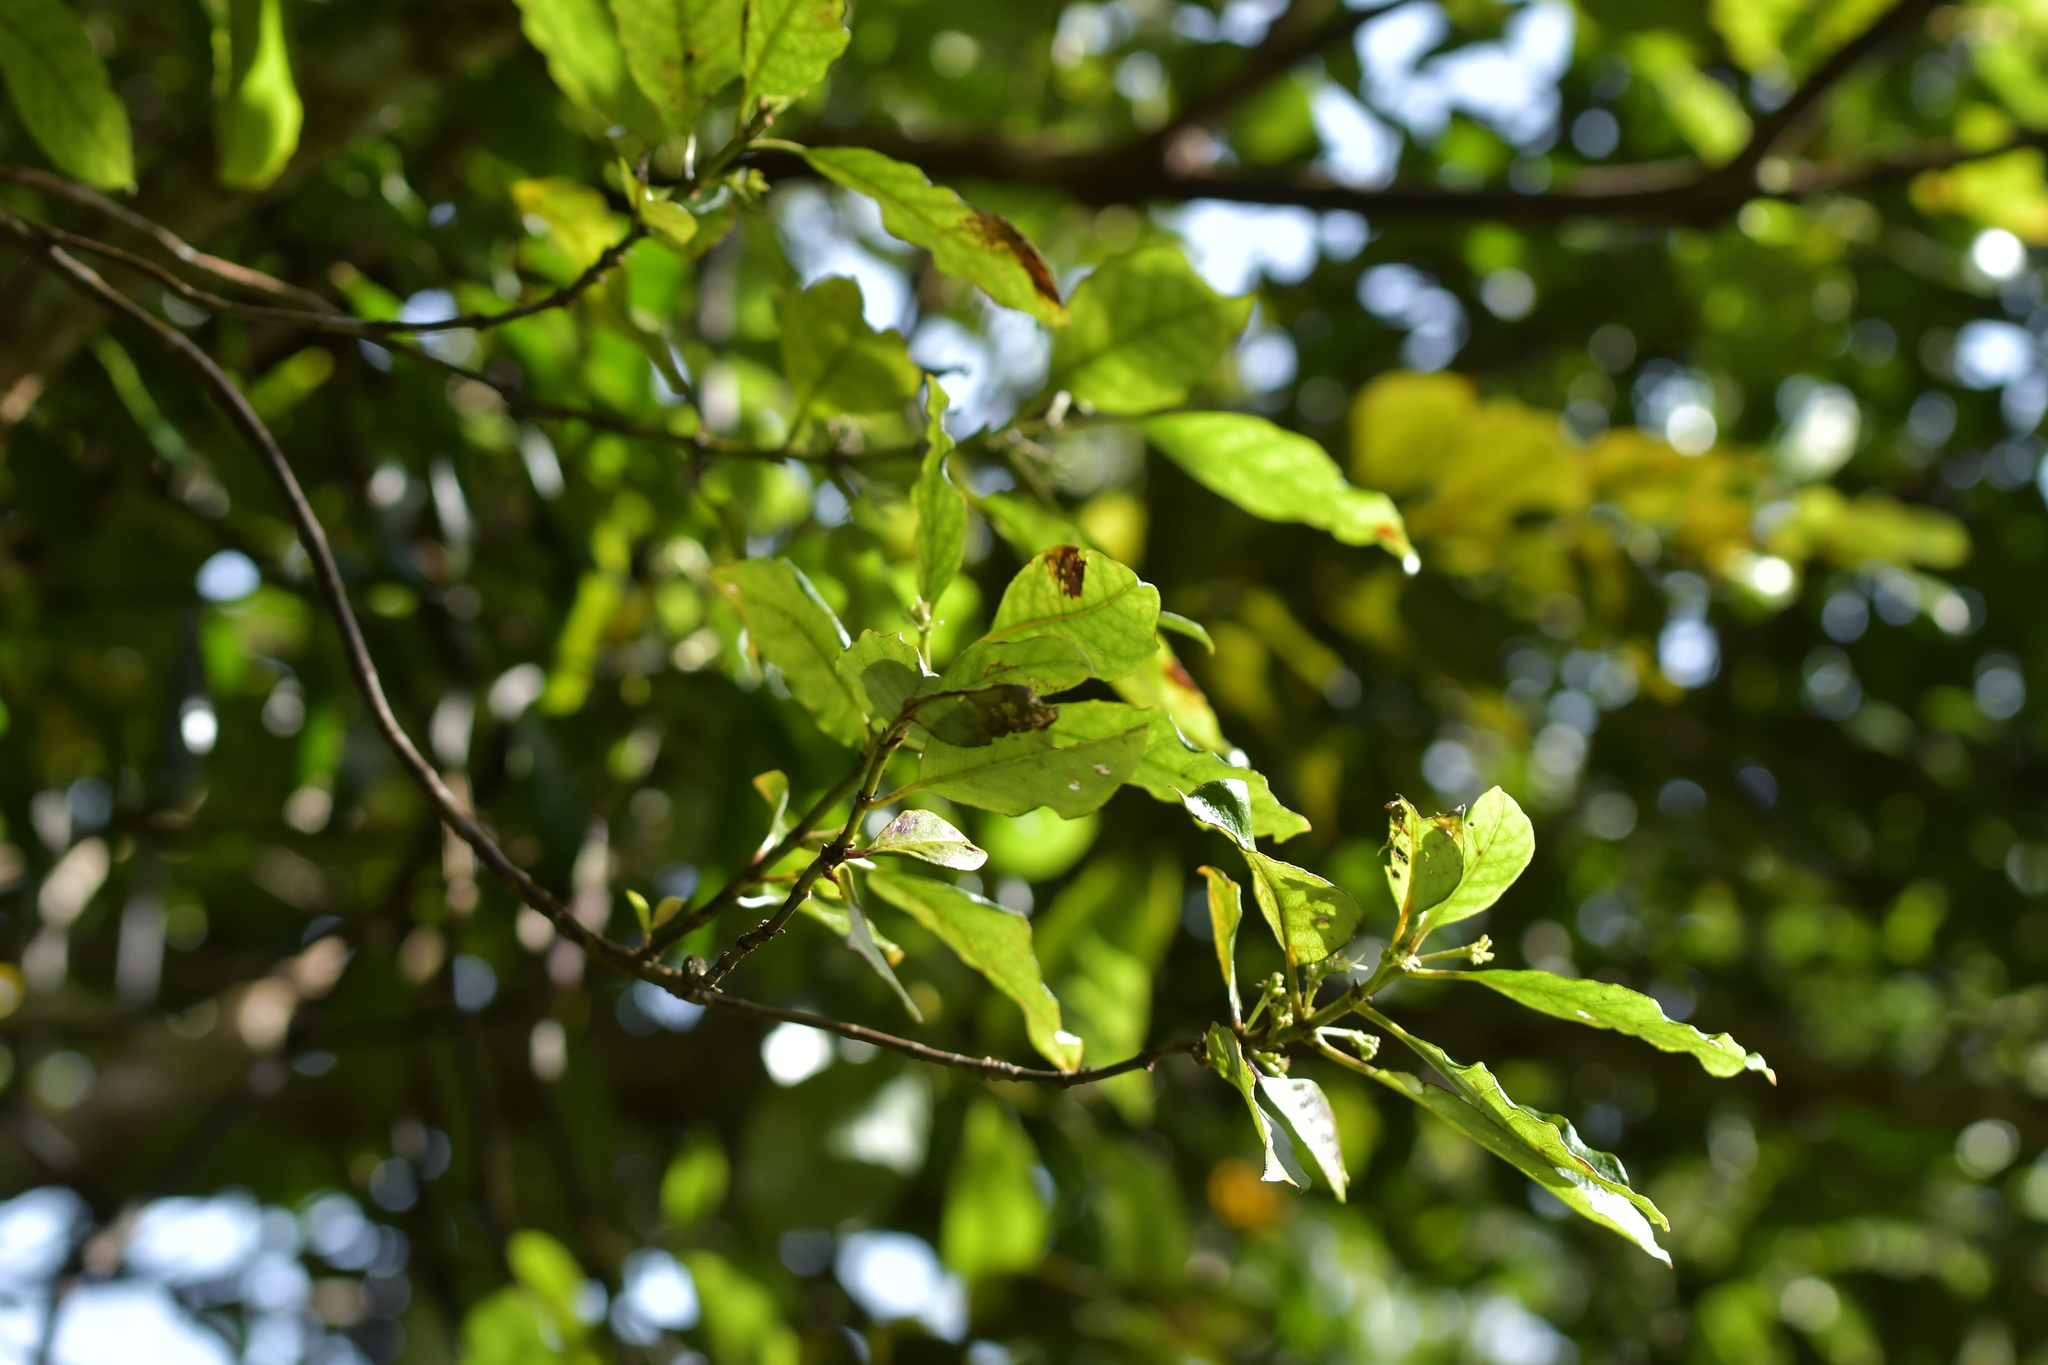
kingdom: Plantae
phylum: Tracheophyta
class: Magnoliopsida
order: Gentianales
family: Rubiaceae
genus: Coprosma
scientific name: Coprosma autumnalis
